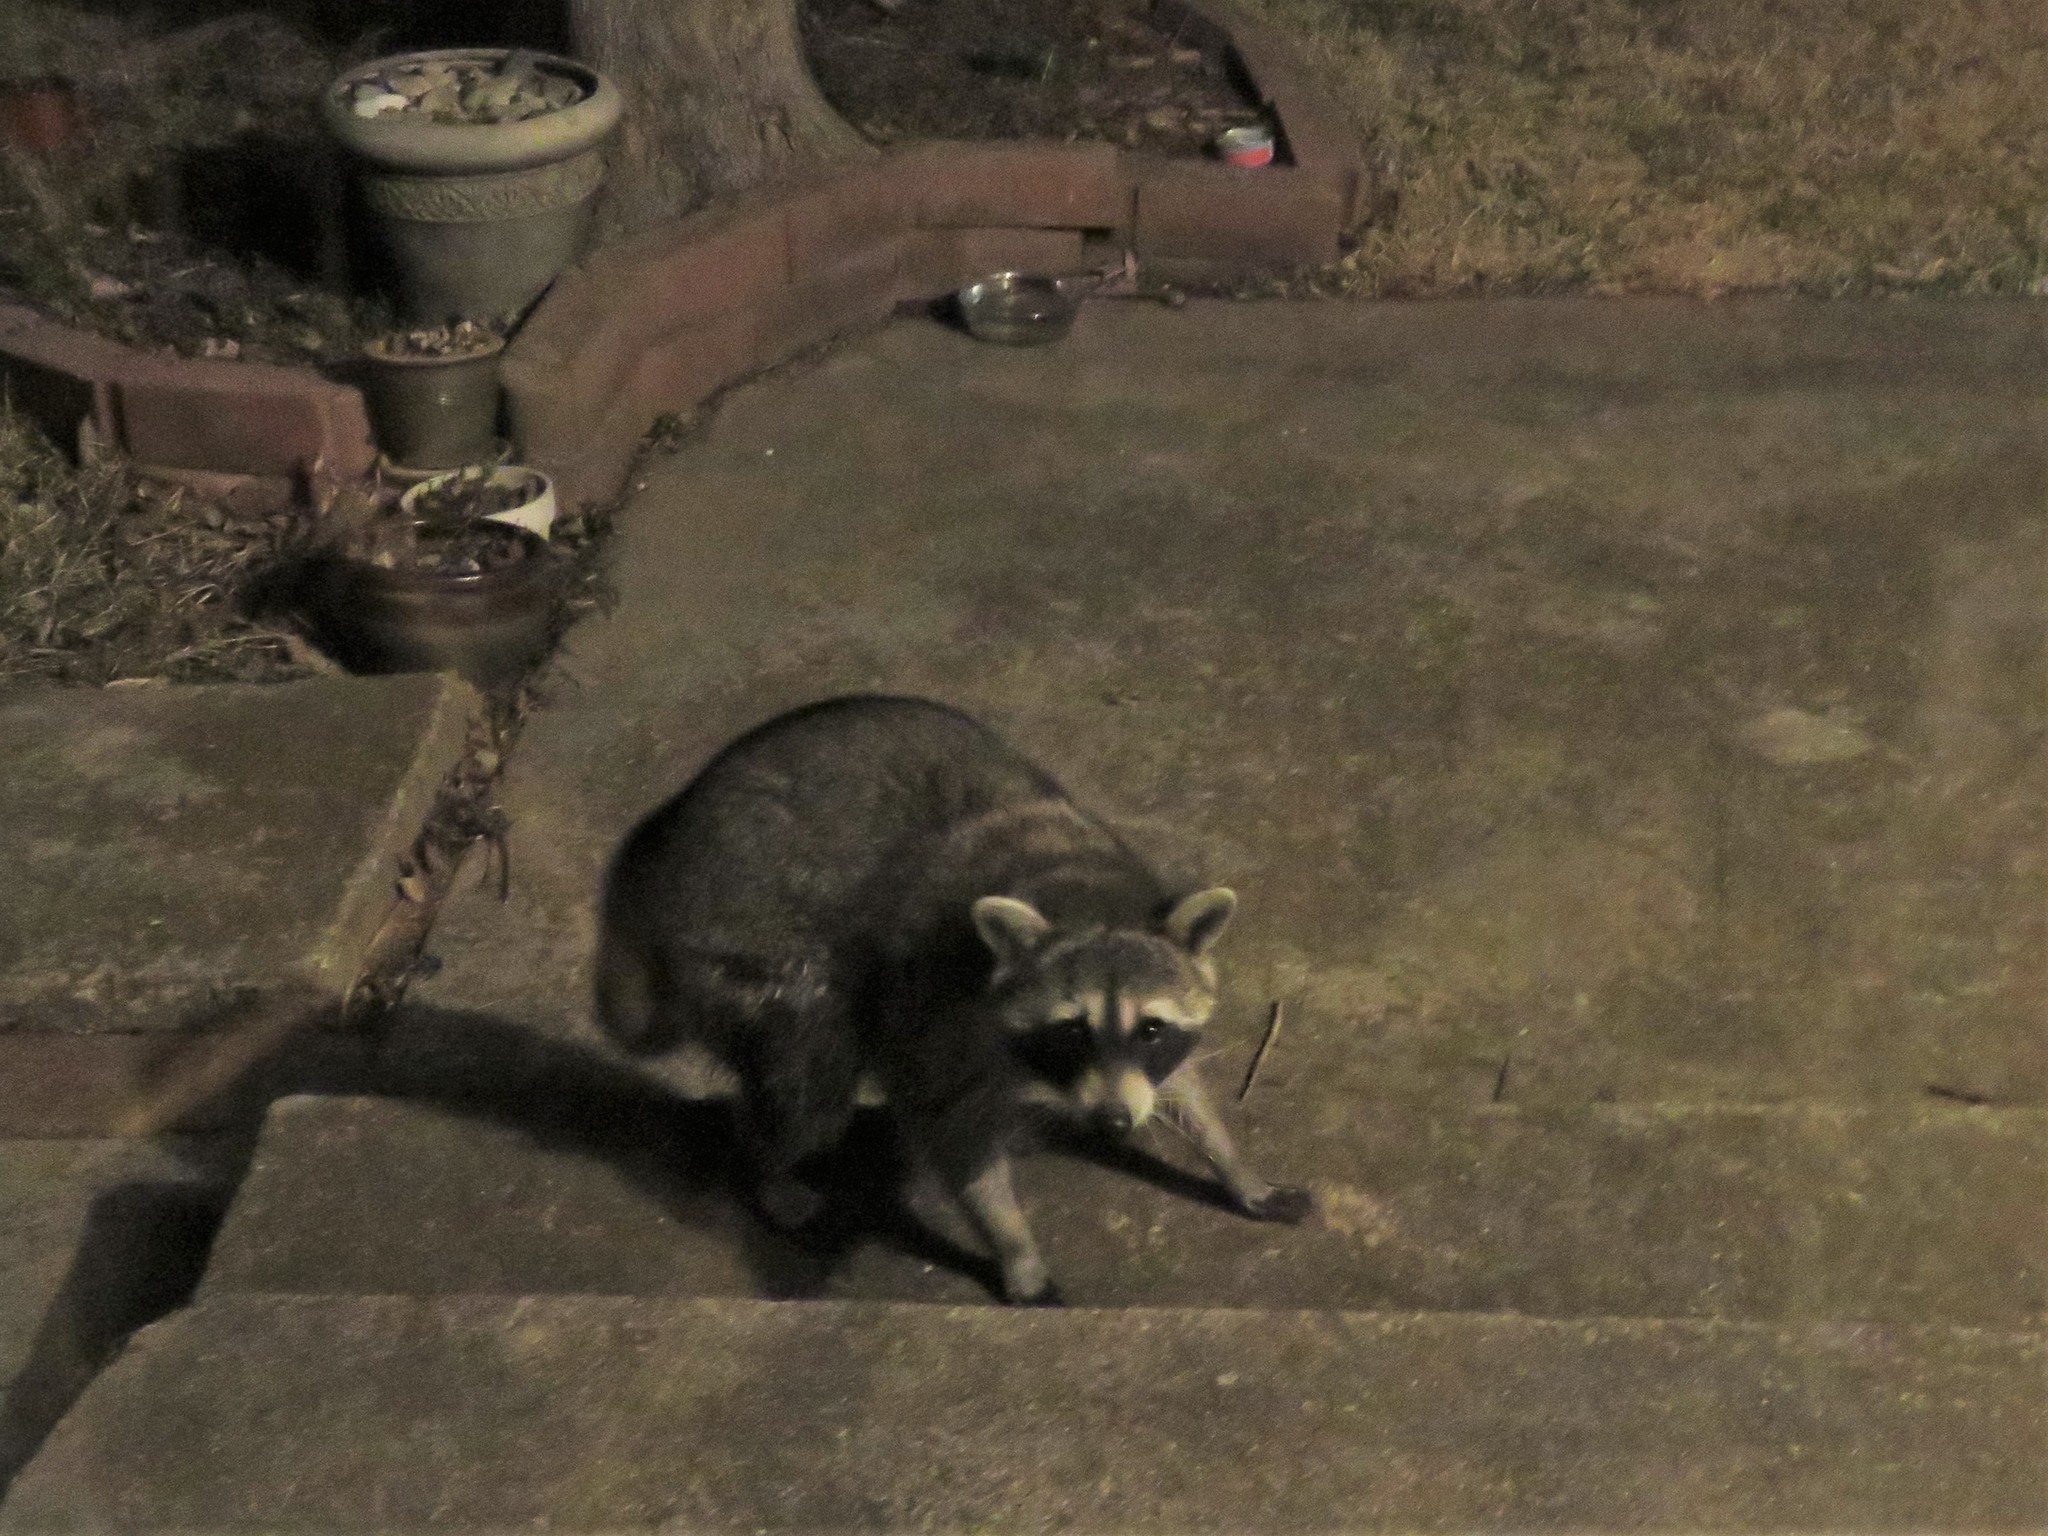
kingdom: Animalia
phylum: Chordata
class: Mammalia
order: Carnivora
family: Procyonidae
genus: Procyon
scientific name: Procyon lotor
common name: Raccoon
